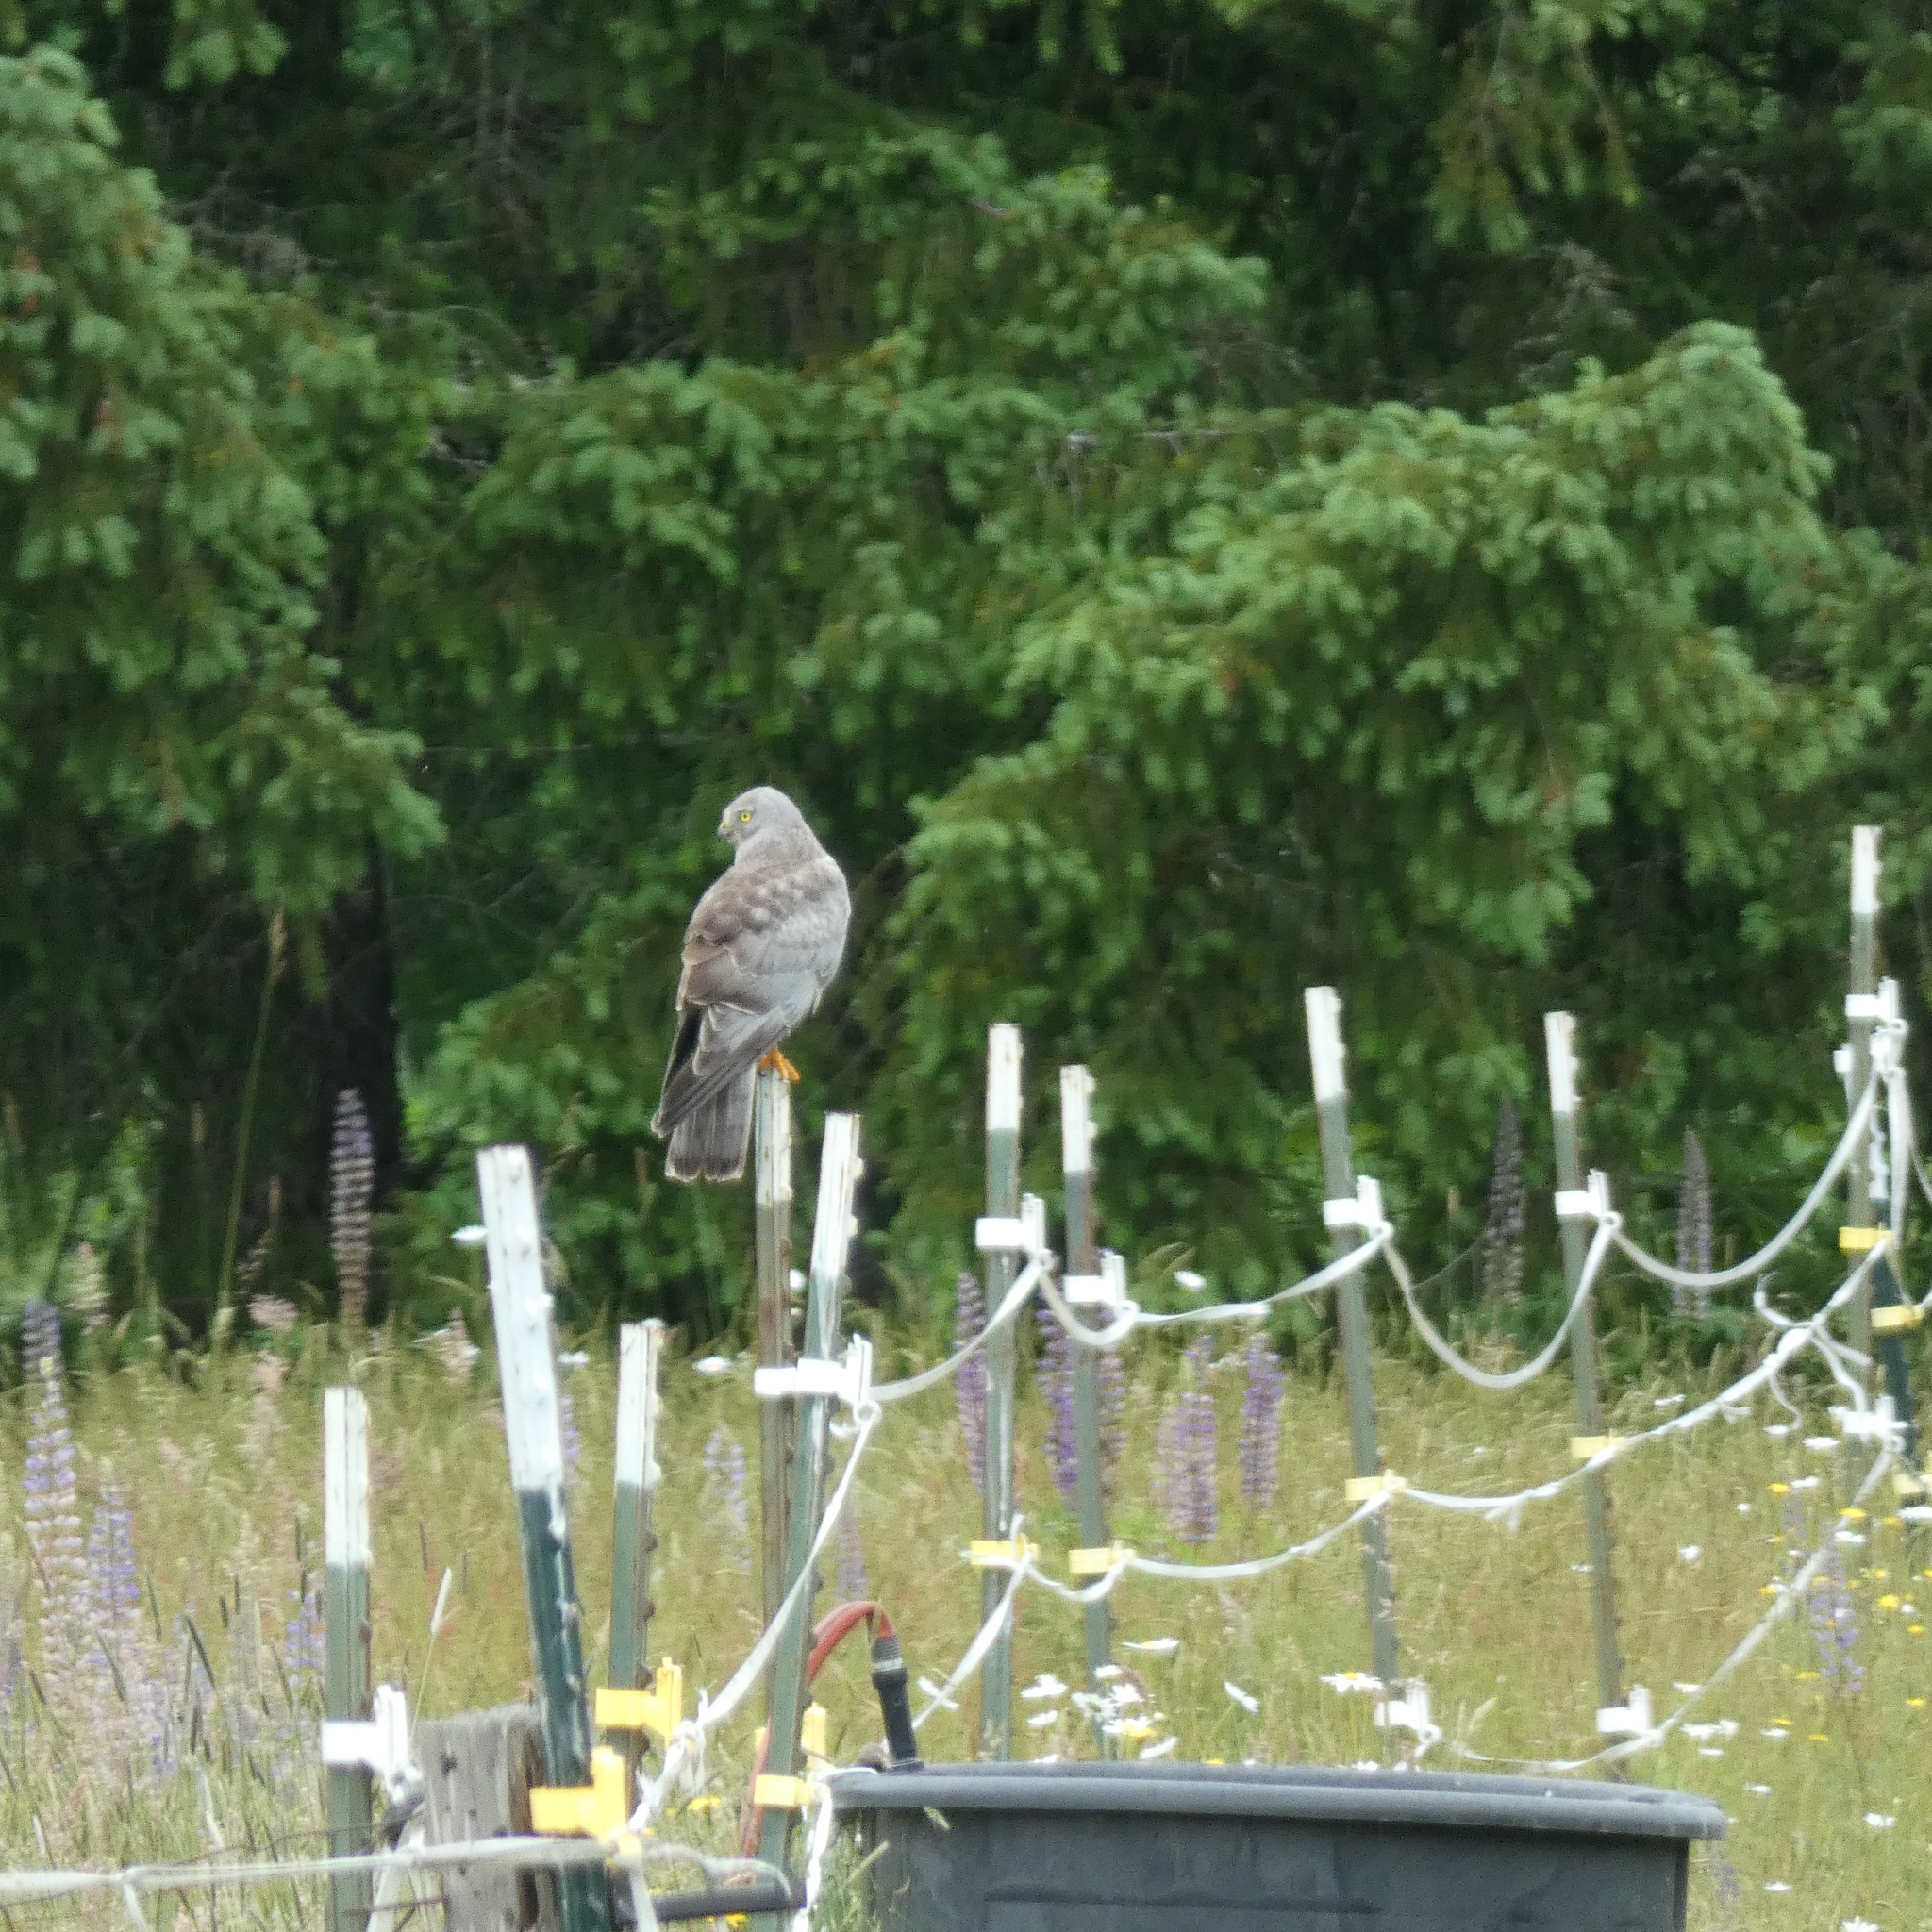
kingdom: Animalia
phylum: Chordata
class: Aves
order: Accipitriformes
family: Accipitridae
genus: Circus
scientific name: Circus cyaneus
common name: Hen harrier
